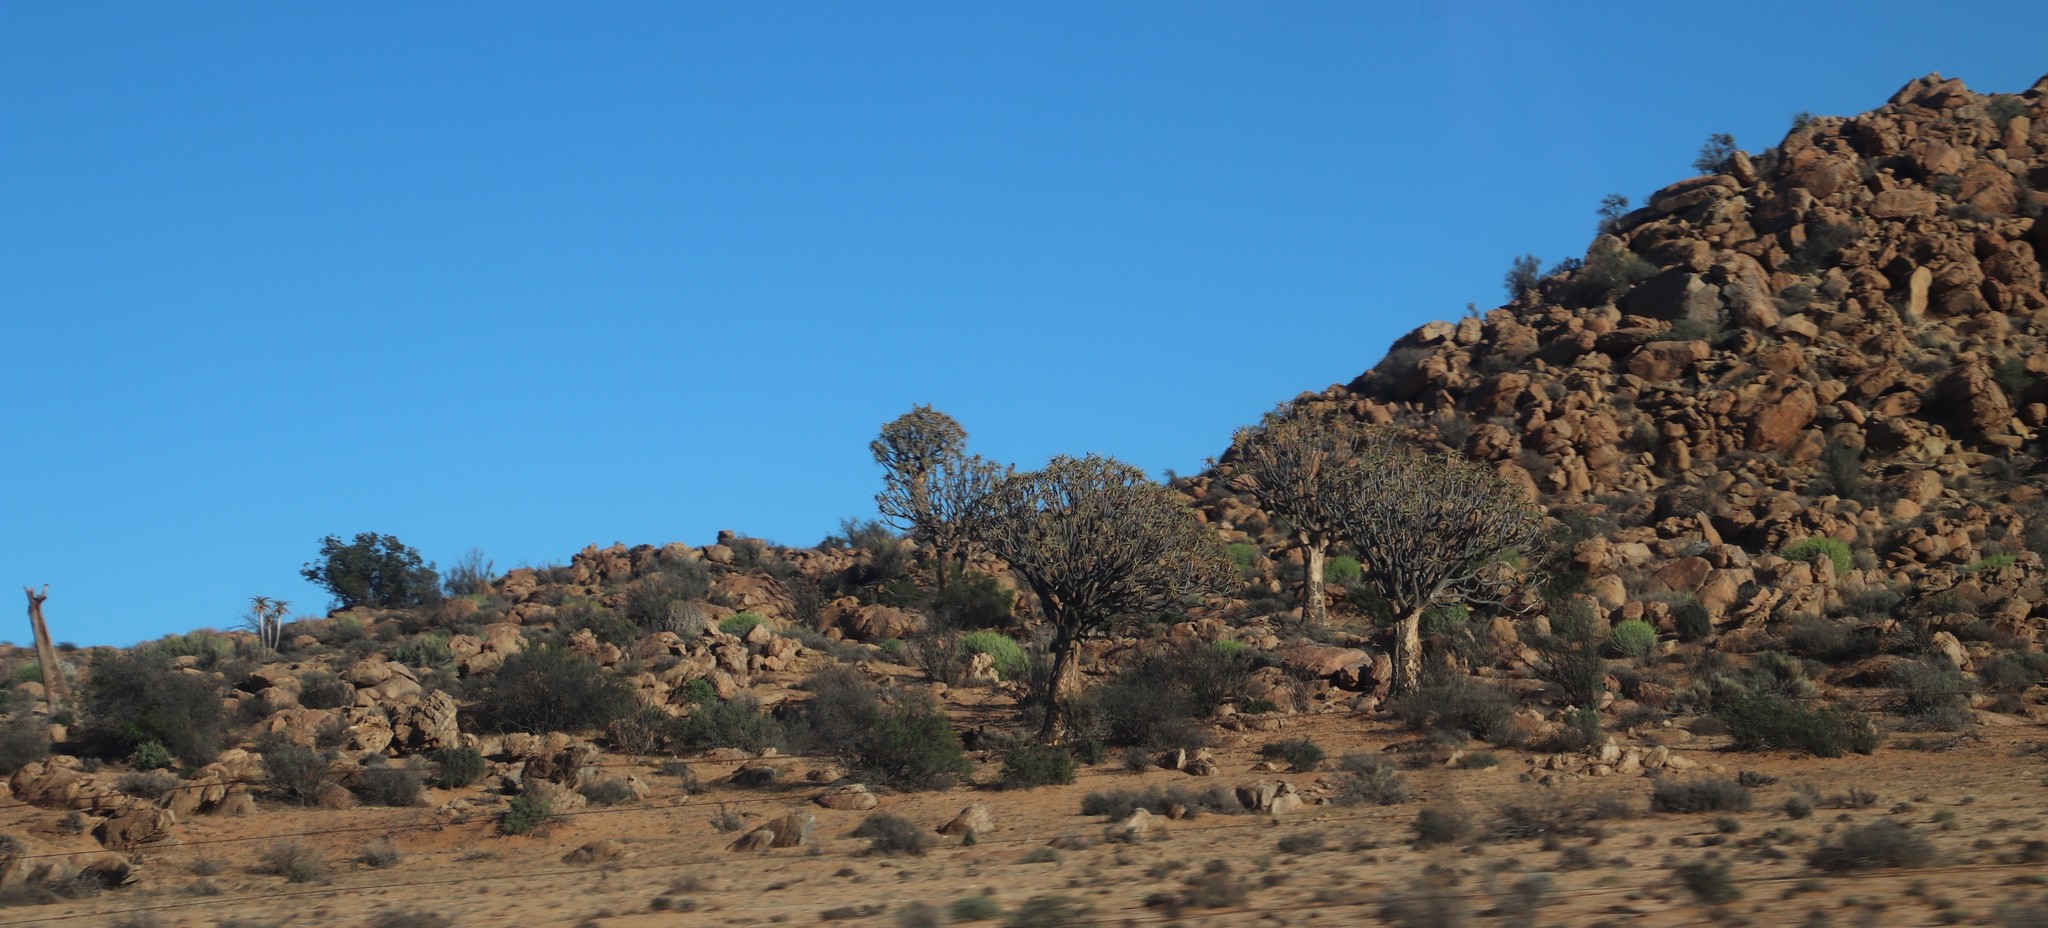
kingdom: Plantae
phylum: Tracheophyta
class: Liliopsida
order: Asparagales
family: Asphodelaceae
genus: Aloidendron
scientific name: Aloidendron dichotomum
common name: Quiver tree
